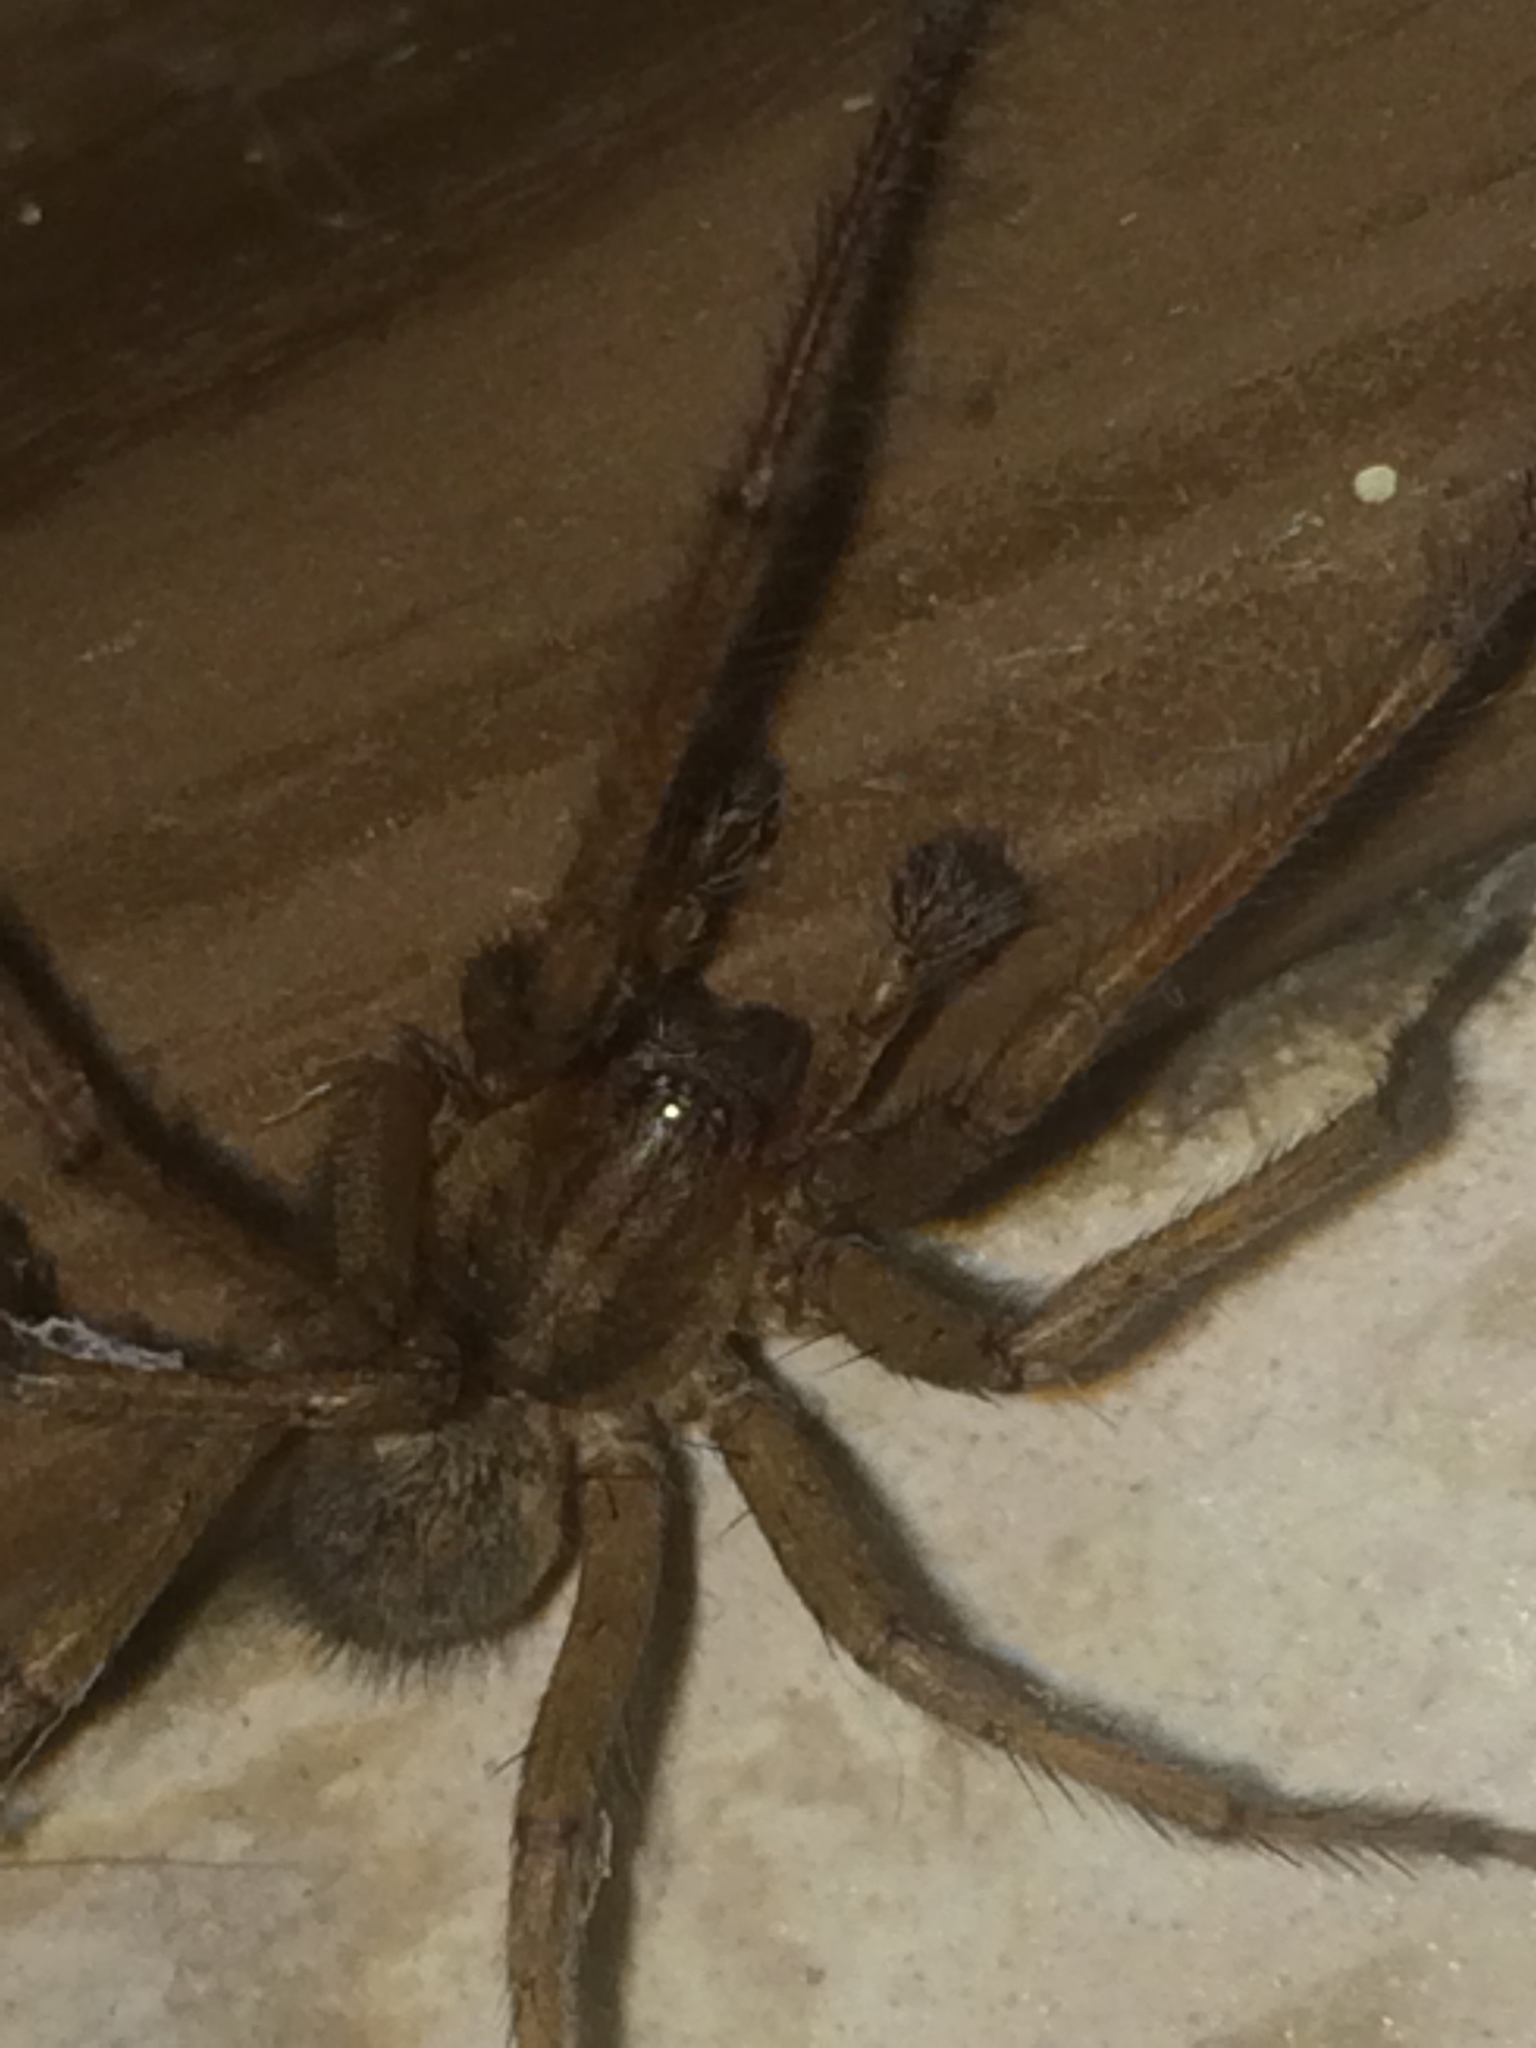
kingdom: Animalia
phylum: Arthropoda
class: Arachnida
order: Araneae
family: Agelenidae
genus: Eratigena
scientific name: Eratigena agrestis
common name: Hobo spider
